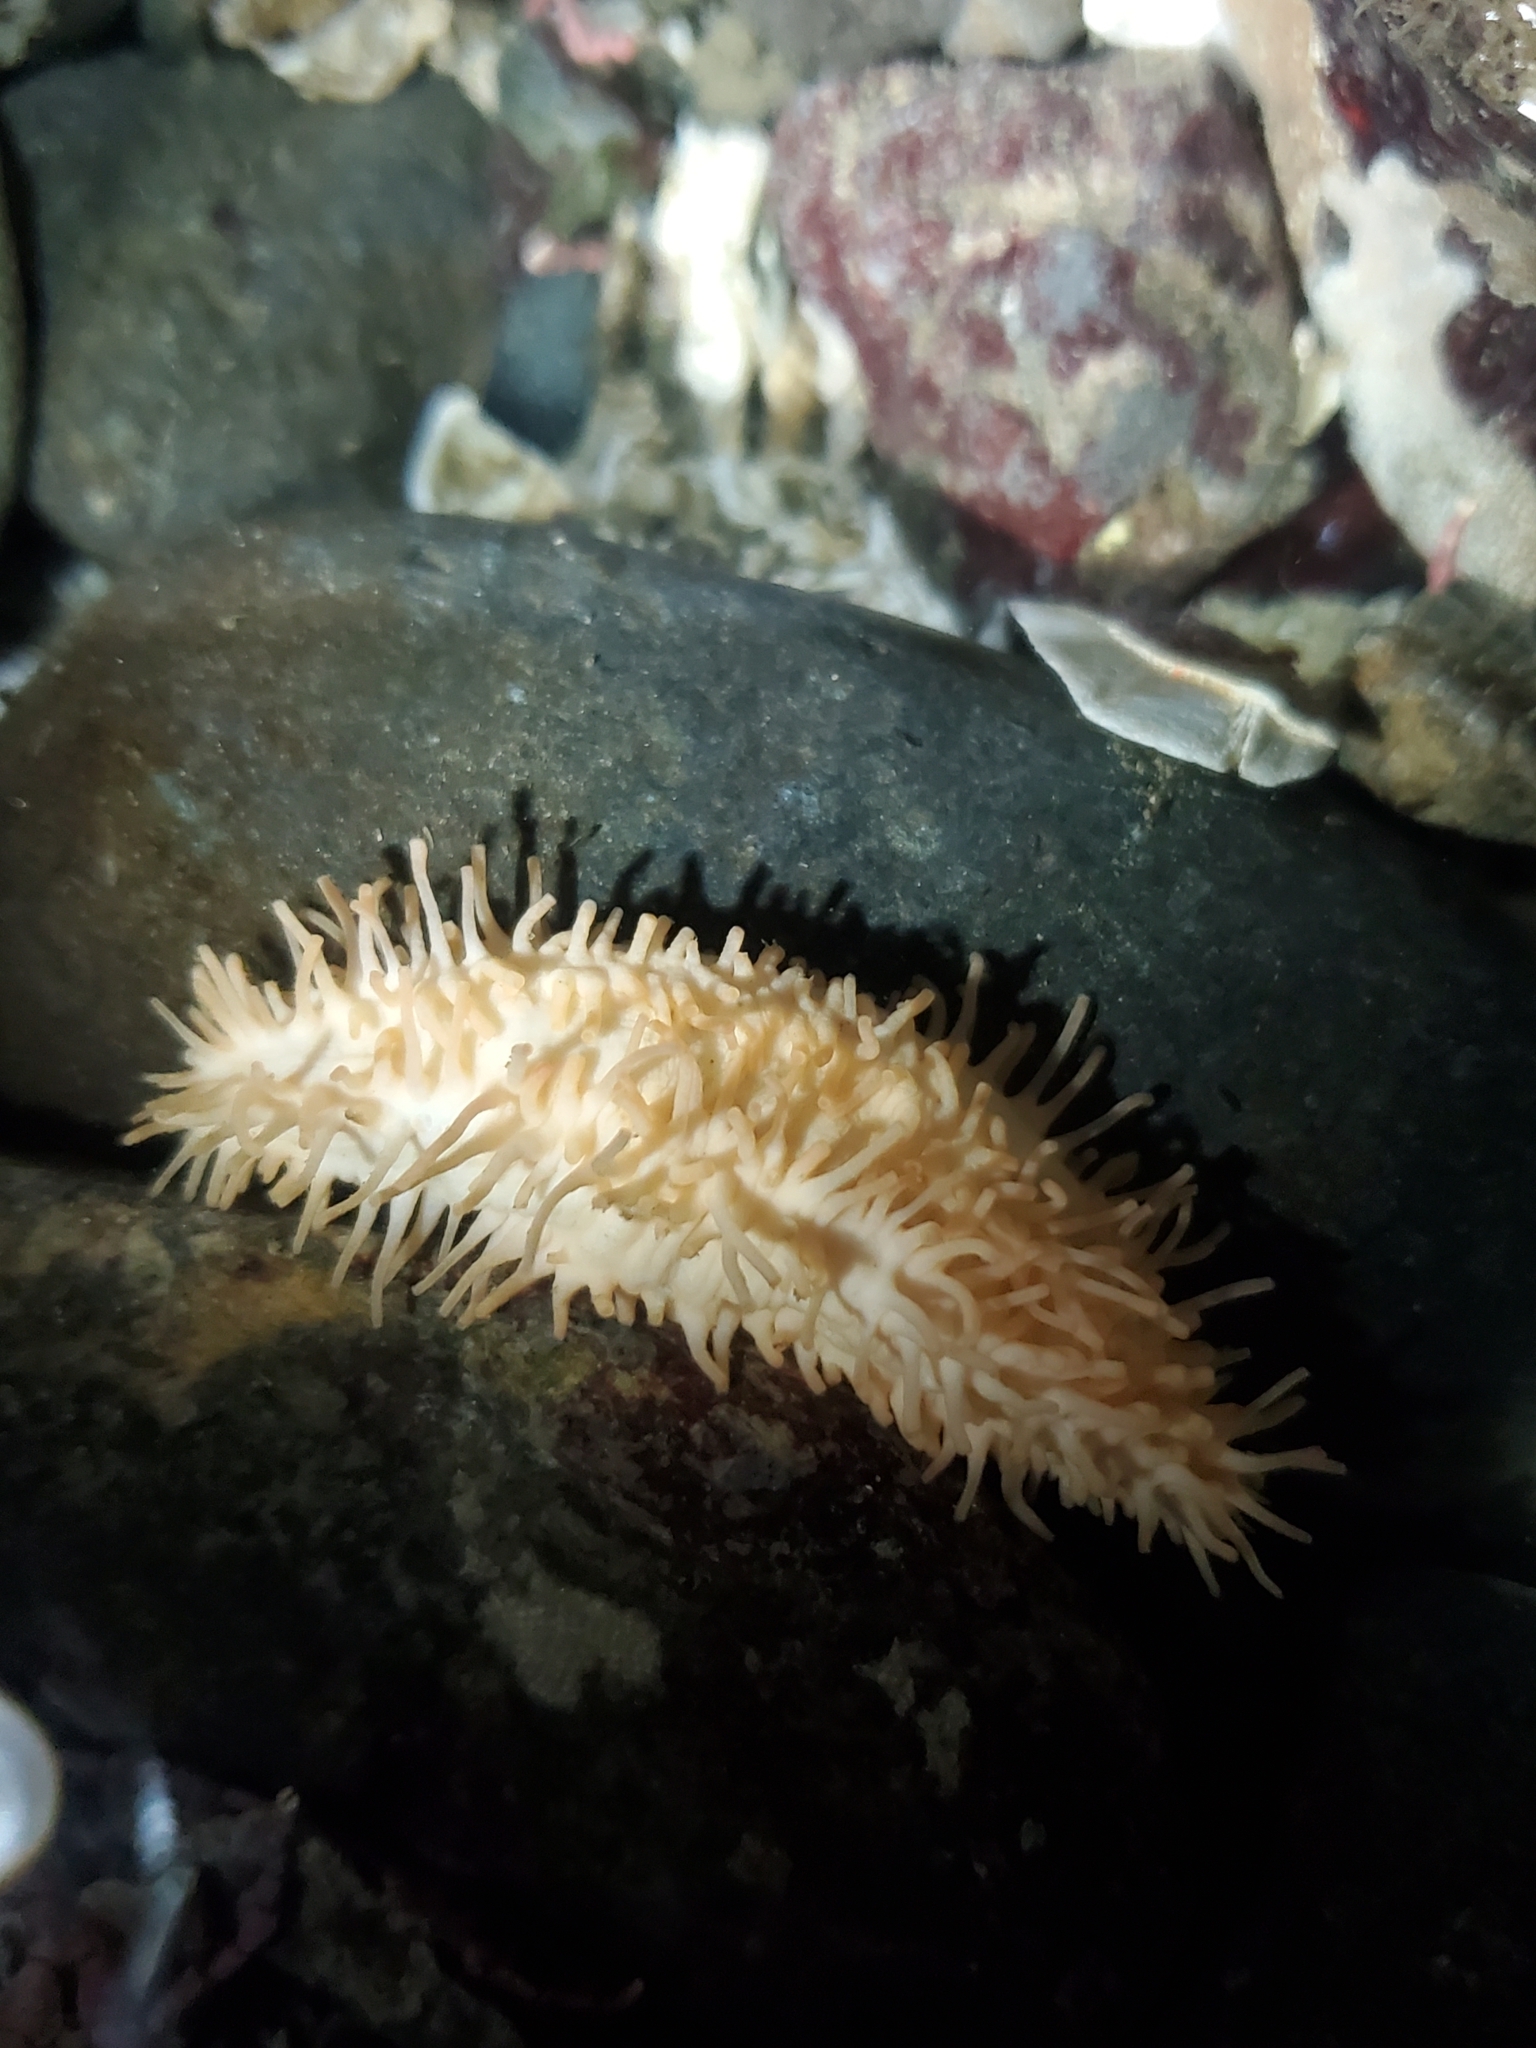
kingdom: Animalia
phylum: Echinodermata
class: Holothuroidea
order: Dendrochirotida
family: Sclerodactylidae
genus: Eupentacta
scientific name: Eupentacta quinquesemita
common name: Pentamerous sea cucumber
